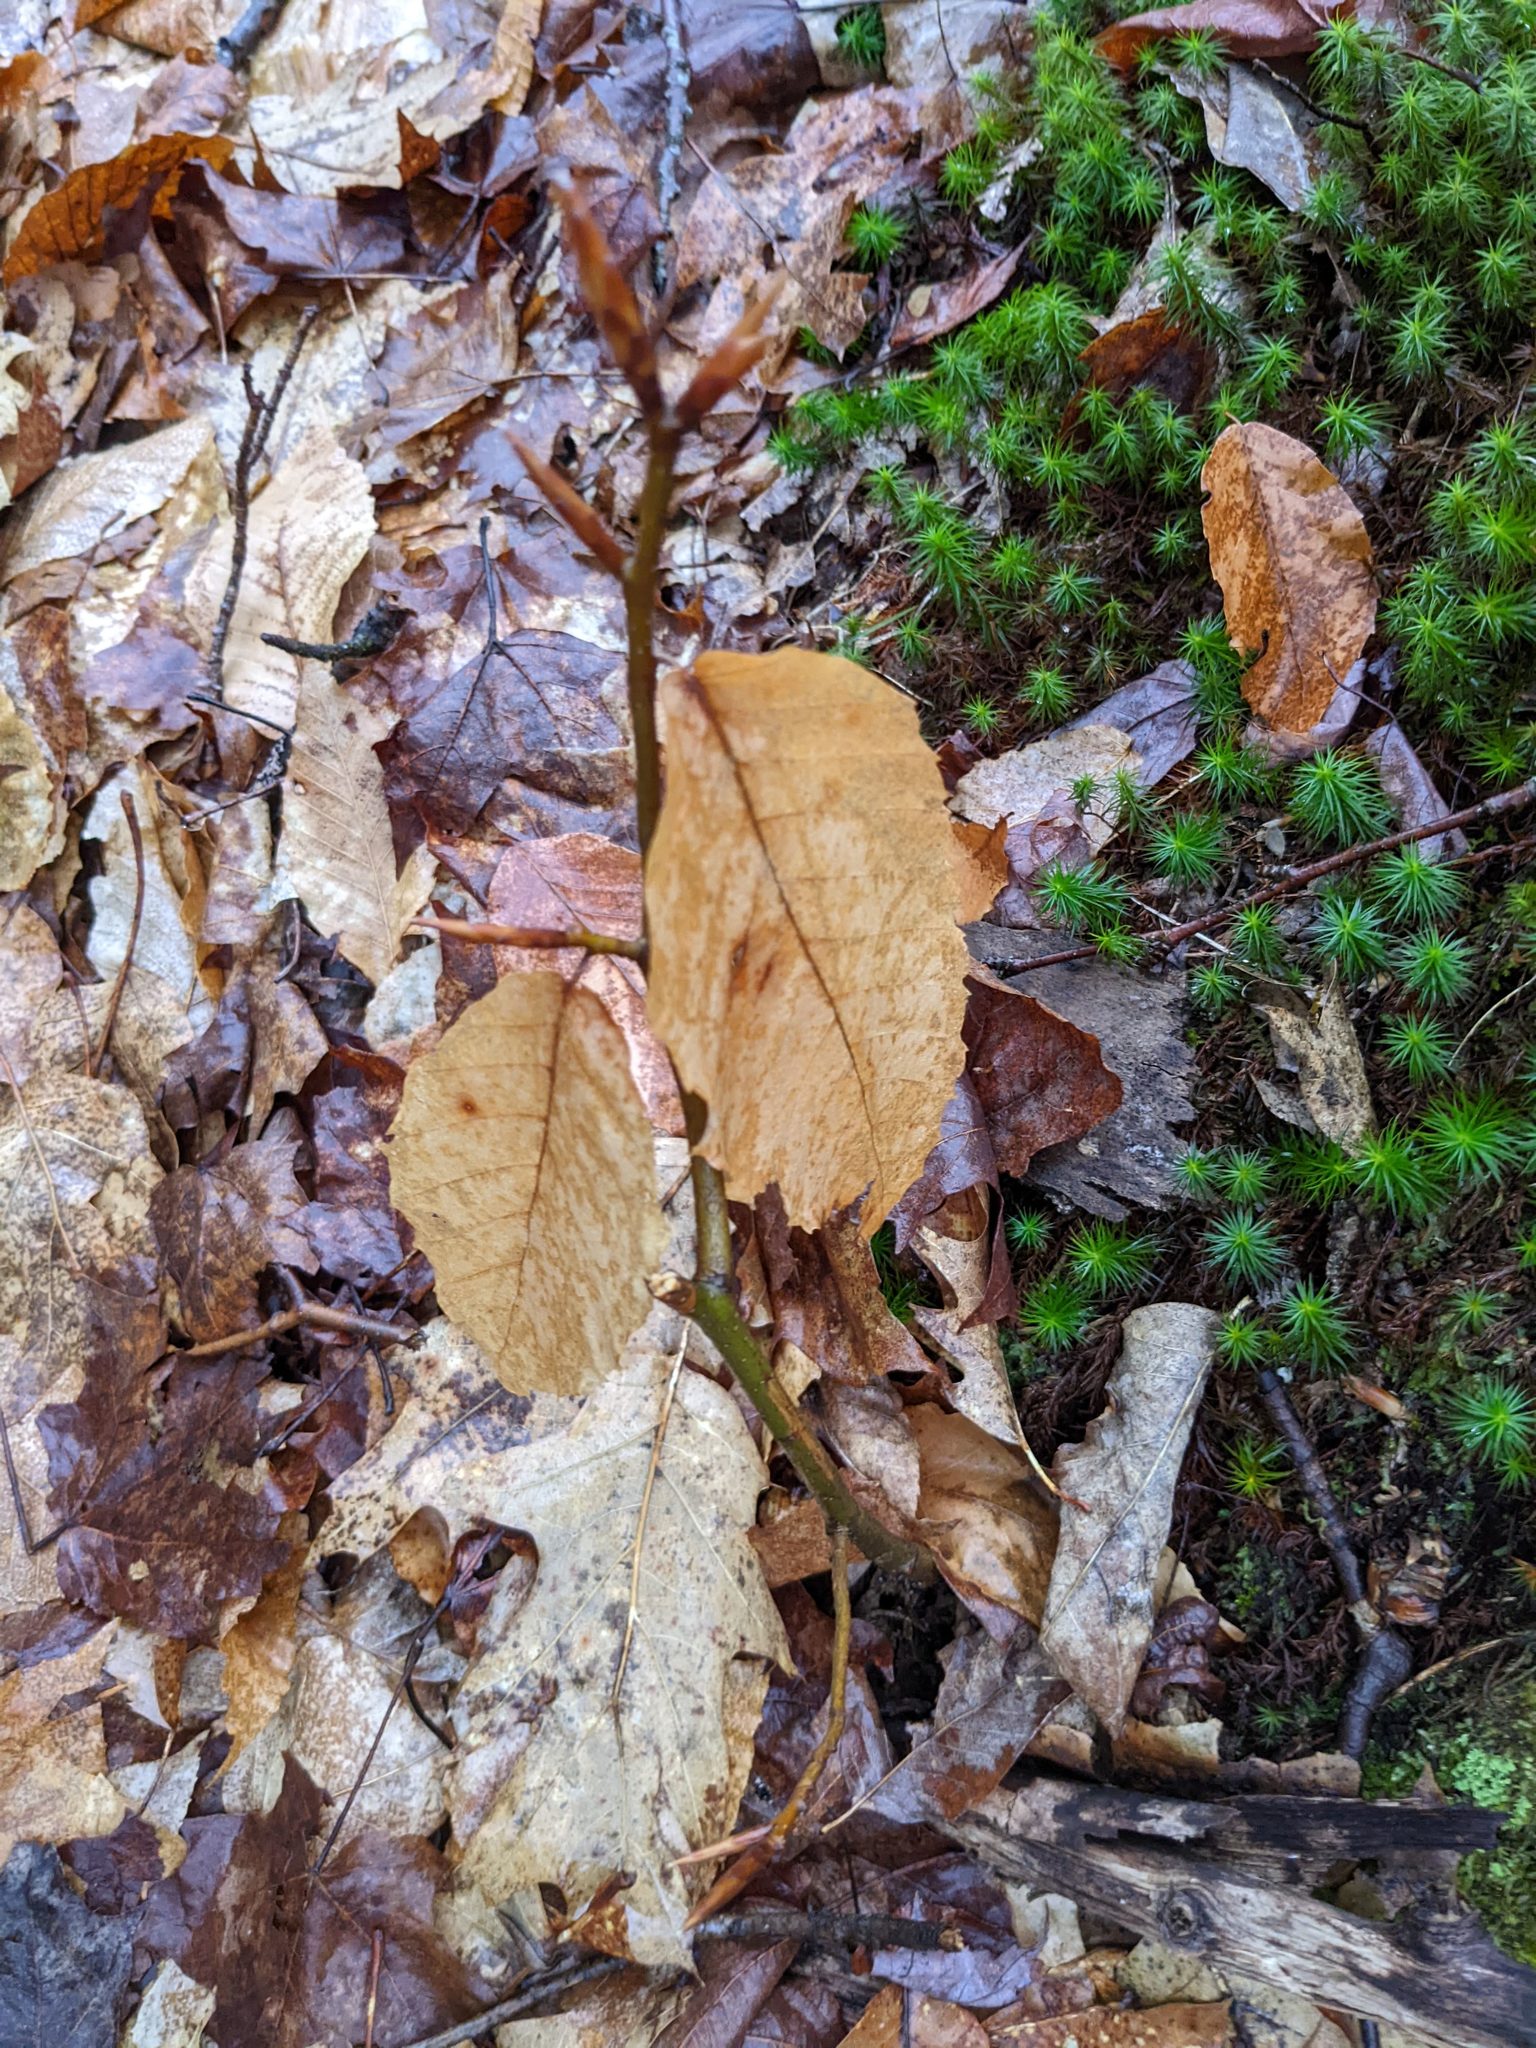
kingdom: Plantae
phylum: Tracheophyta
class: Magnoliopsida
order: Fagales
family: Fagaceae
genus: Fagus
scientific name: Fagus grandifolia
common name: American beech
